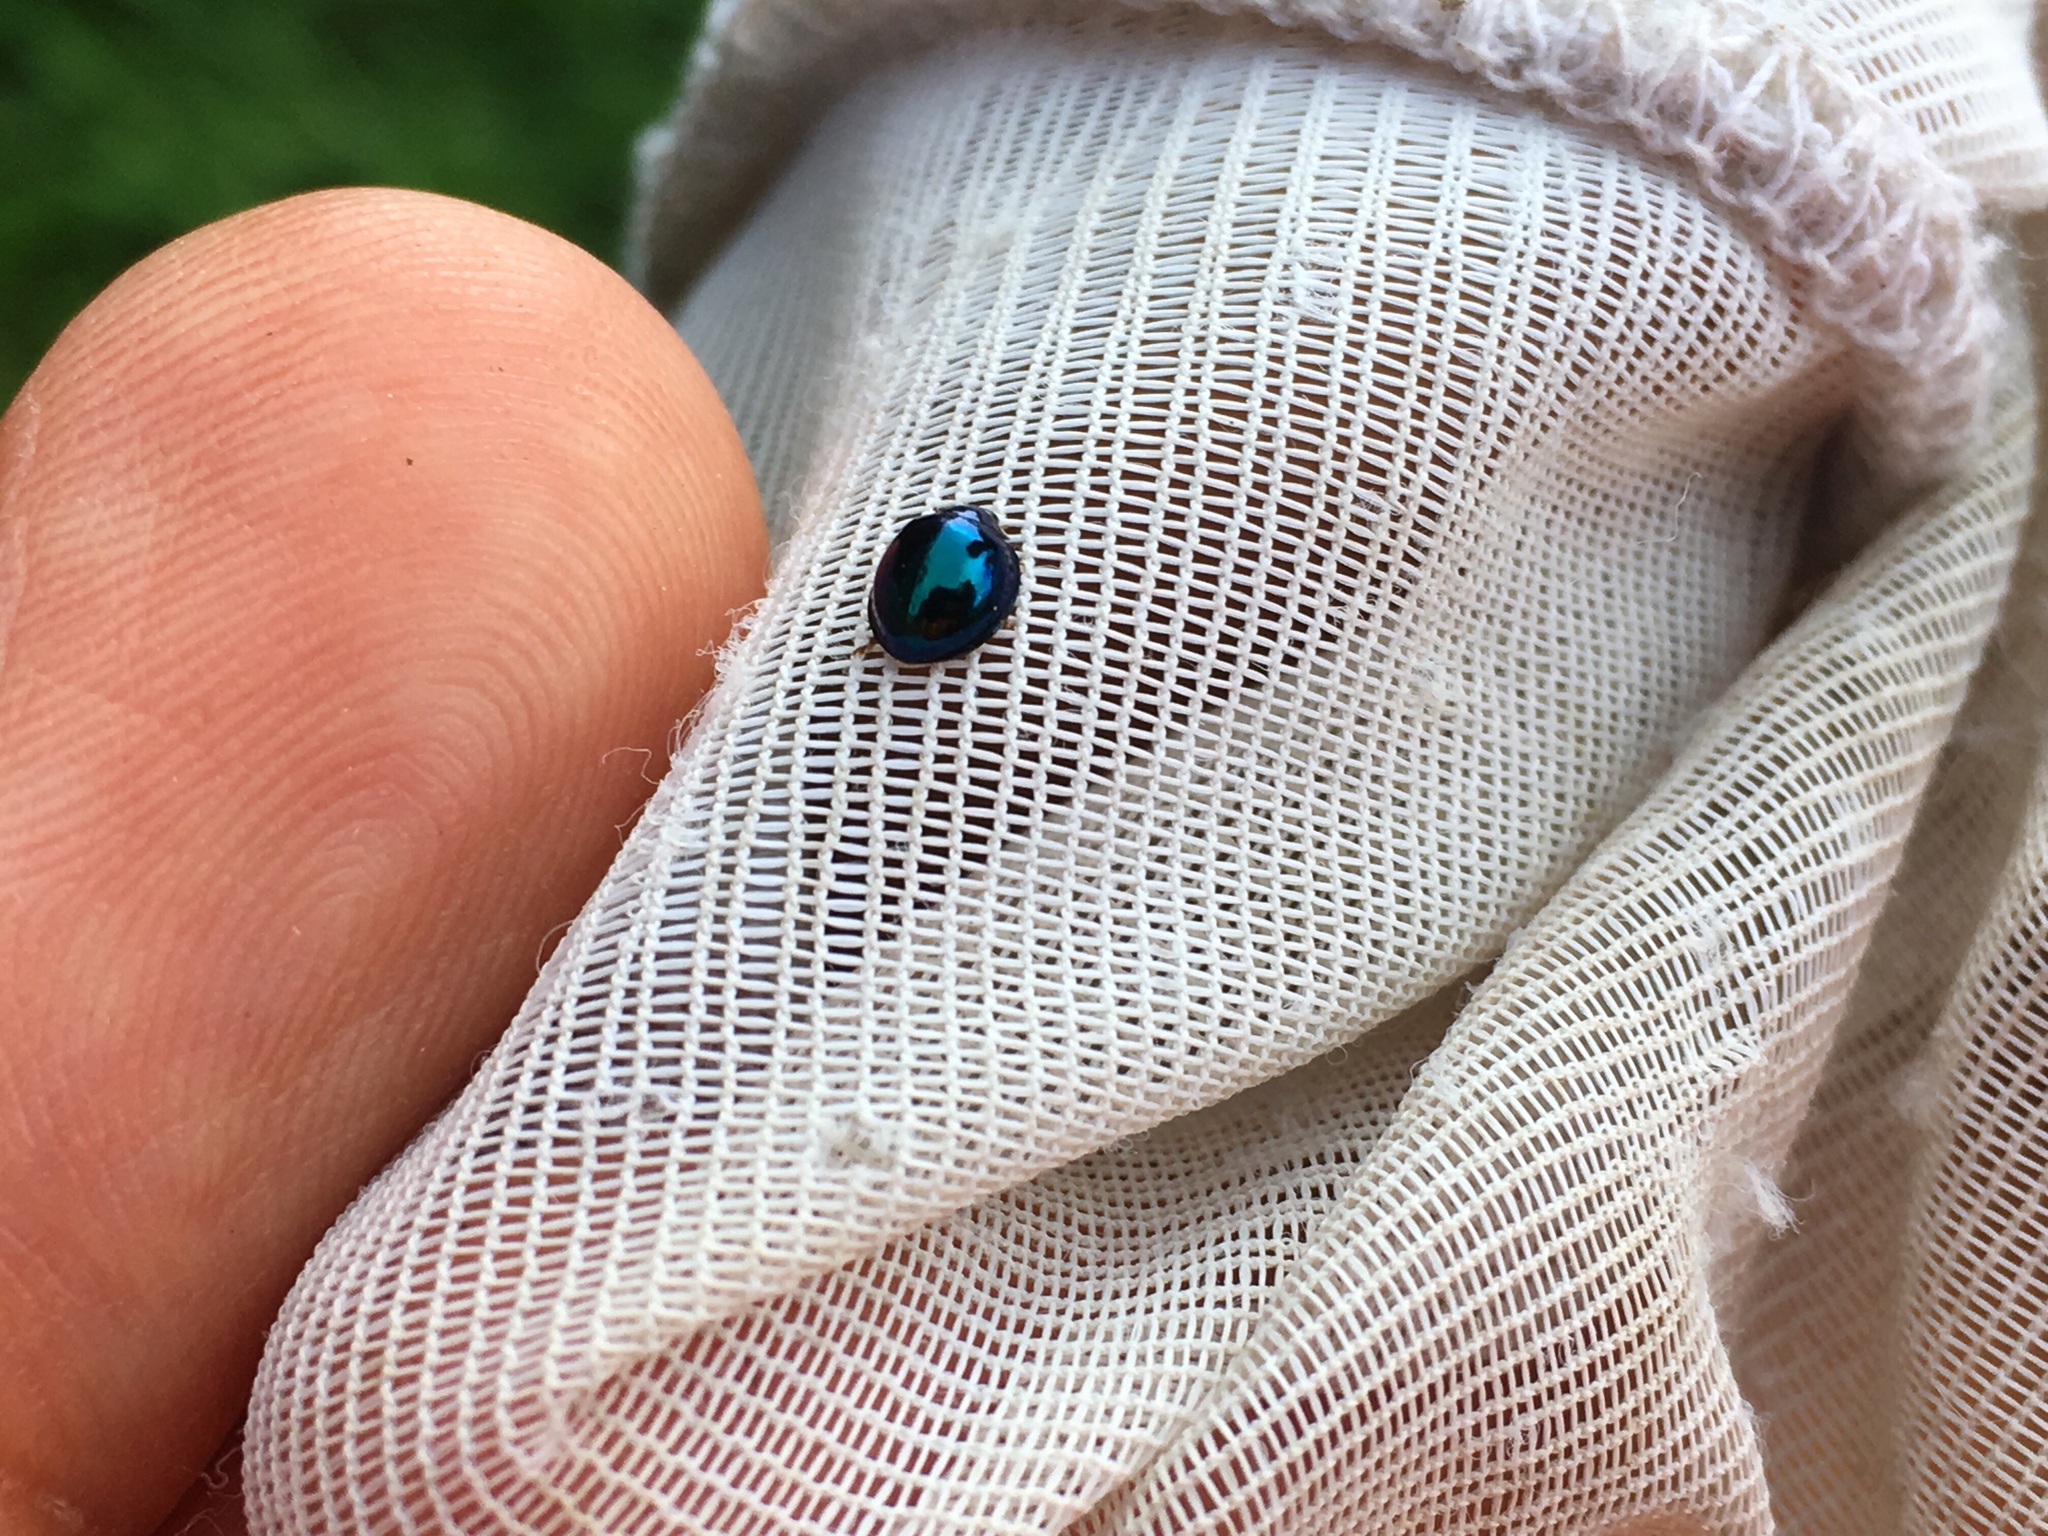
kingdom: Animalia
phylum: Arthropoda
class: Insecta
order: Coleoptera
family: Coccinellidae
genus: Halmus
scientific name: Halmus chalybeus
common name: Steel blue ladybird beetle
